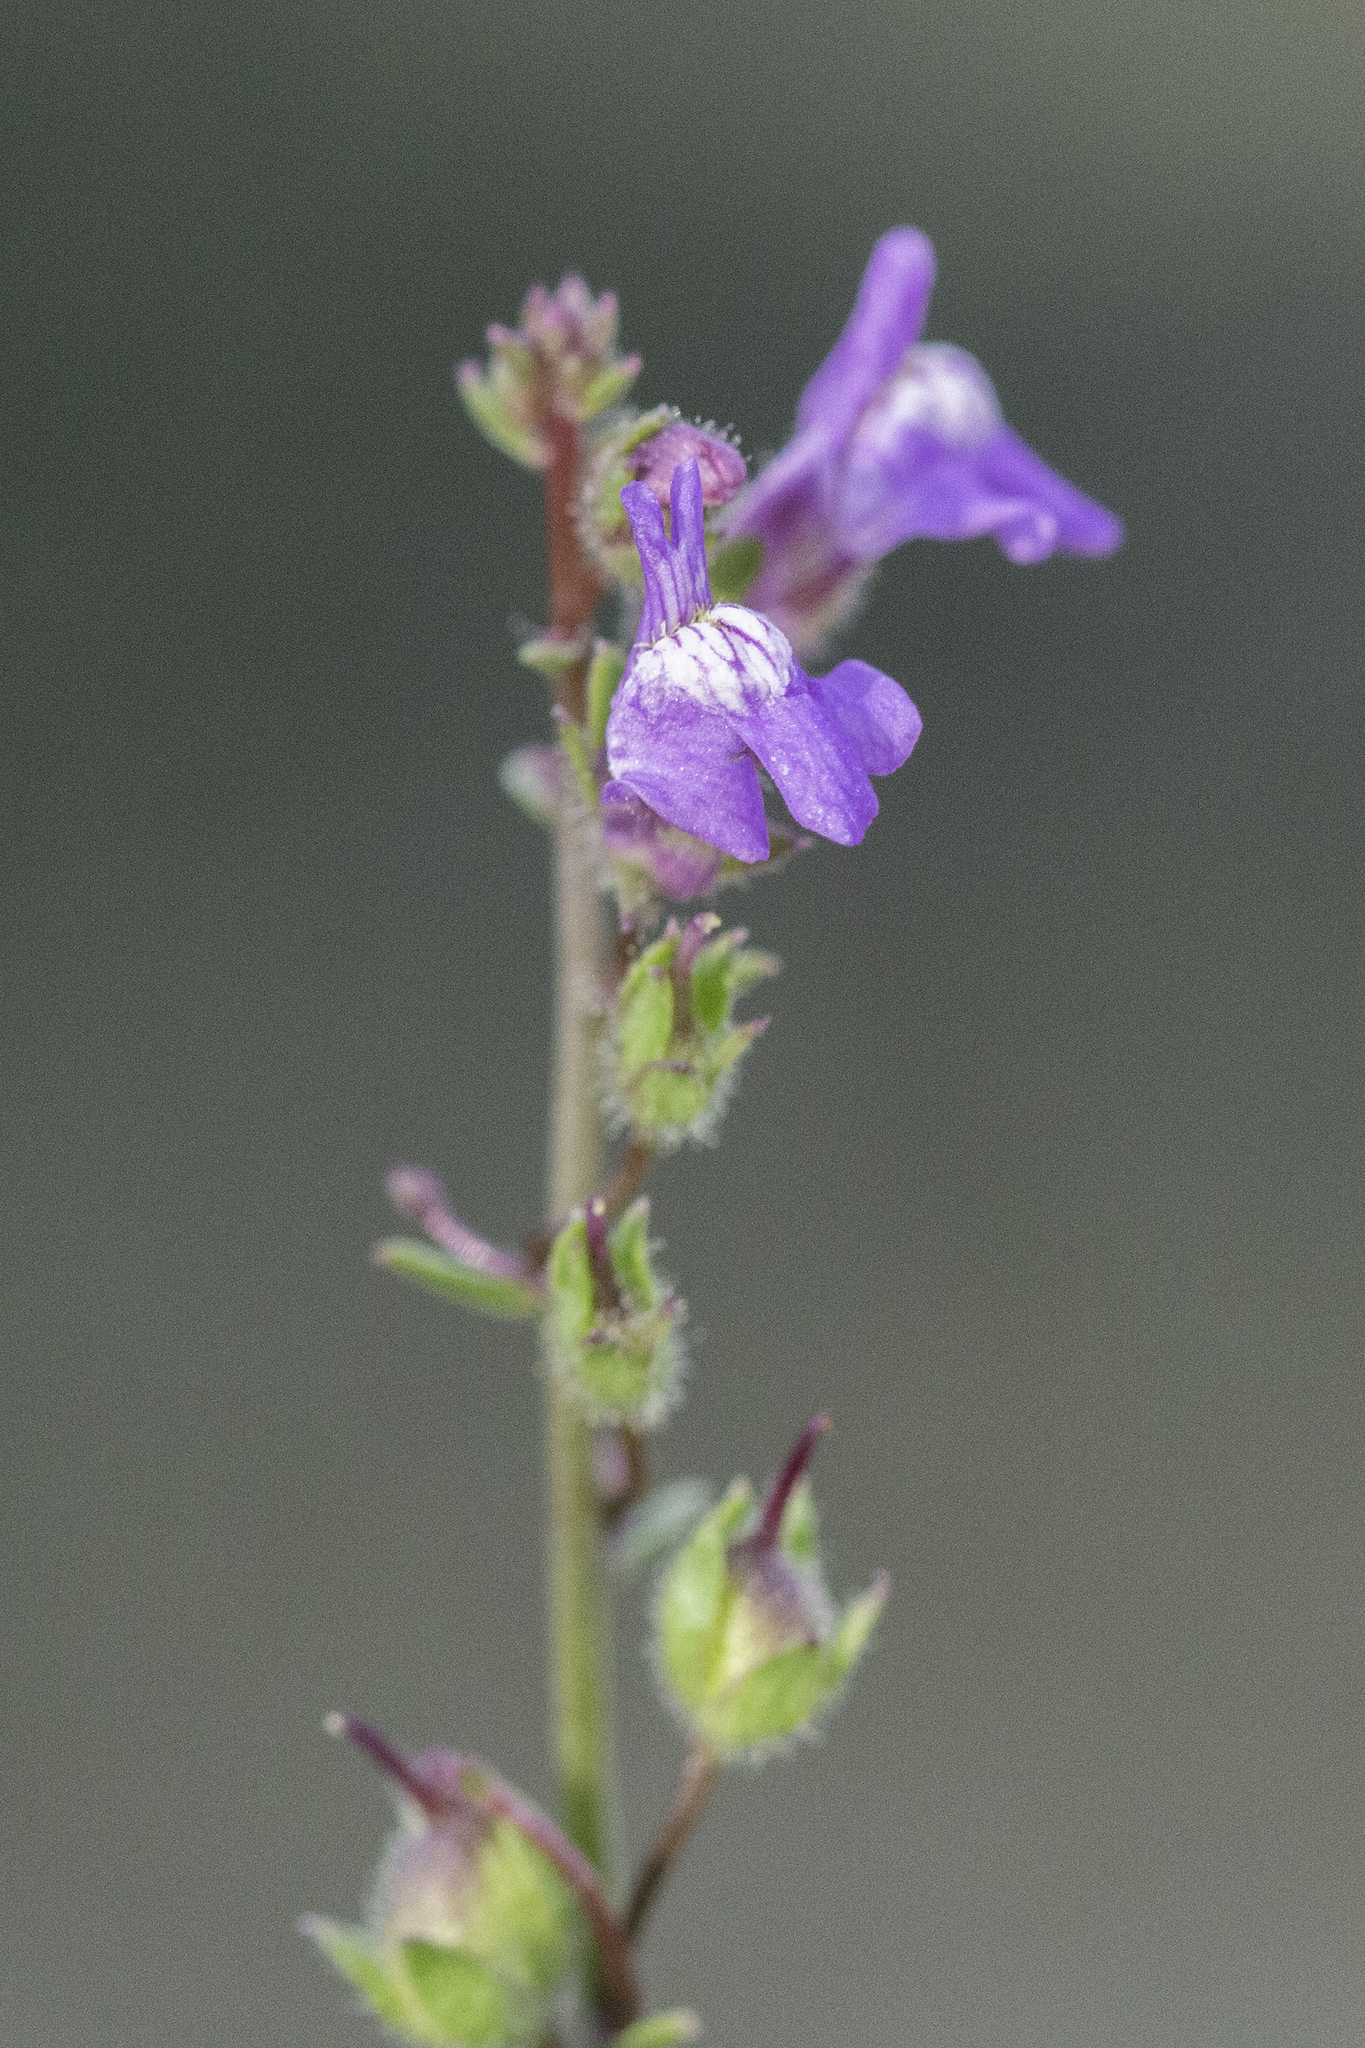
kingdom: Plantae
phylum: Tracheophyta
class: Magnoliopsida
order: Lamiales
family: Plantaginaceae
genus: Nuttallanthus
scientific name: Nuttallanthus texanus
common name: Texas toadflax
